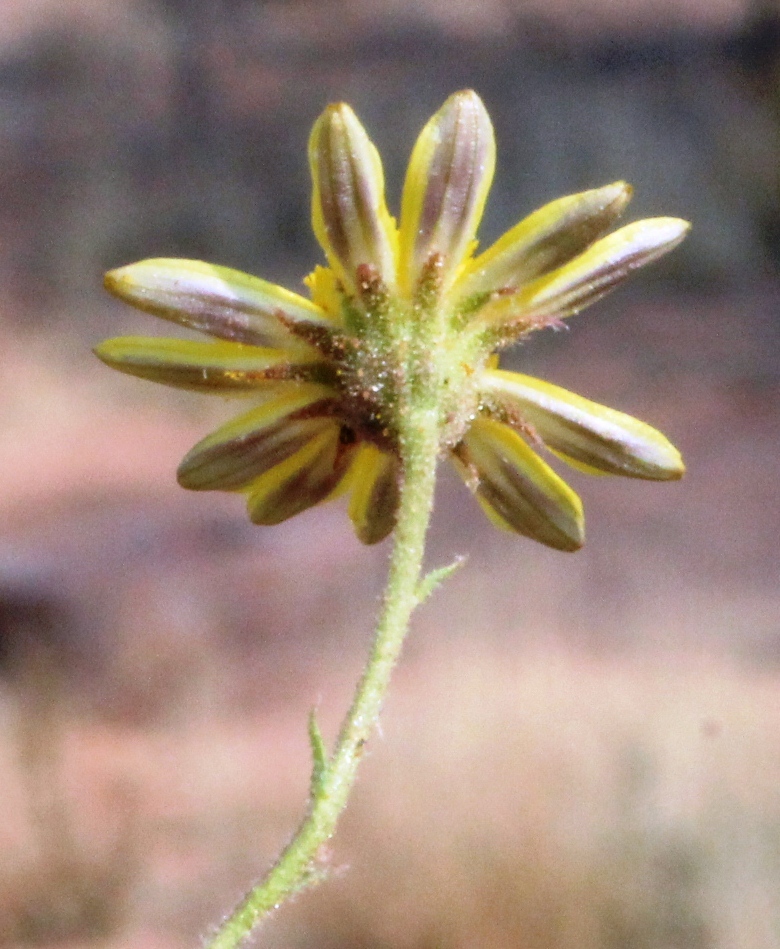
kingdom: Plantae
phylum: Tracheophyta
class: Magnoliopsida
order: Asterales
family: Asteraceae
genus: Osteospermum
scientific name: Osteospermum microcarpum
